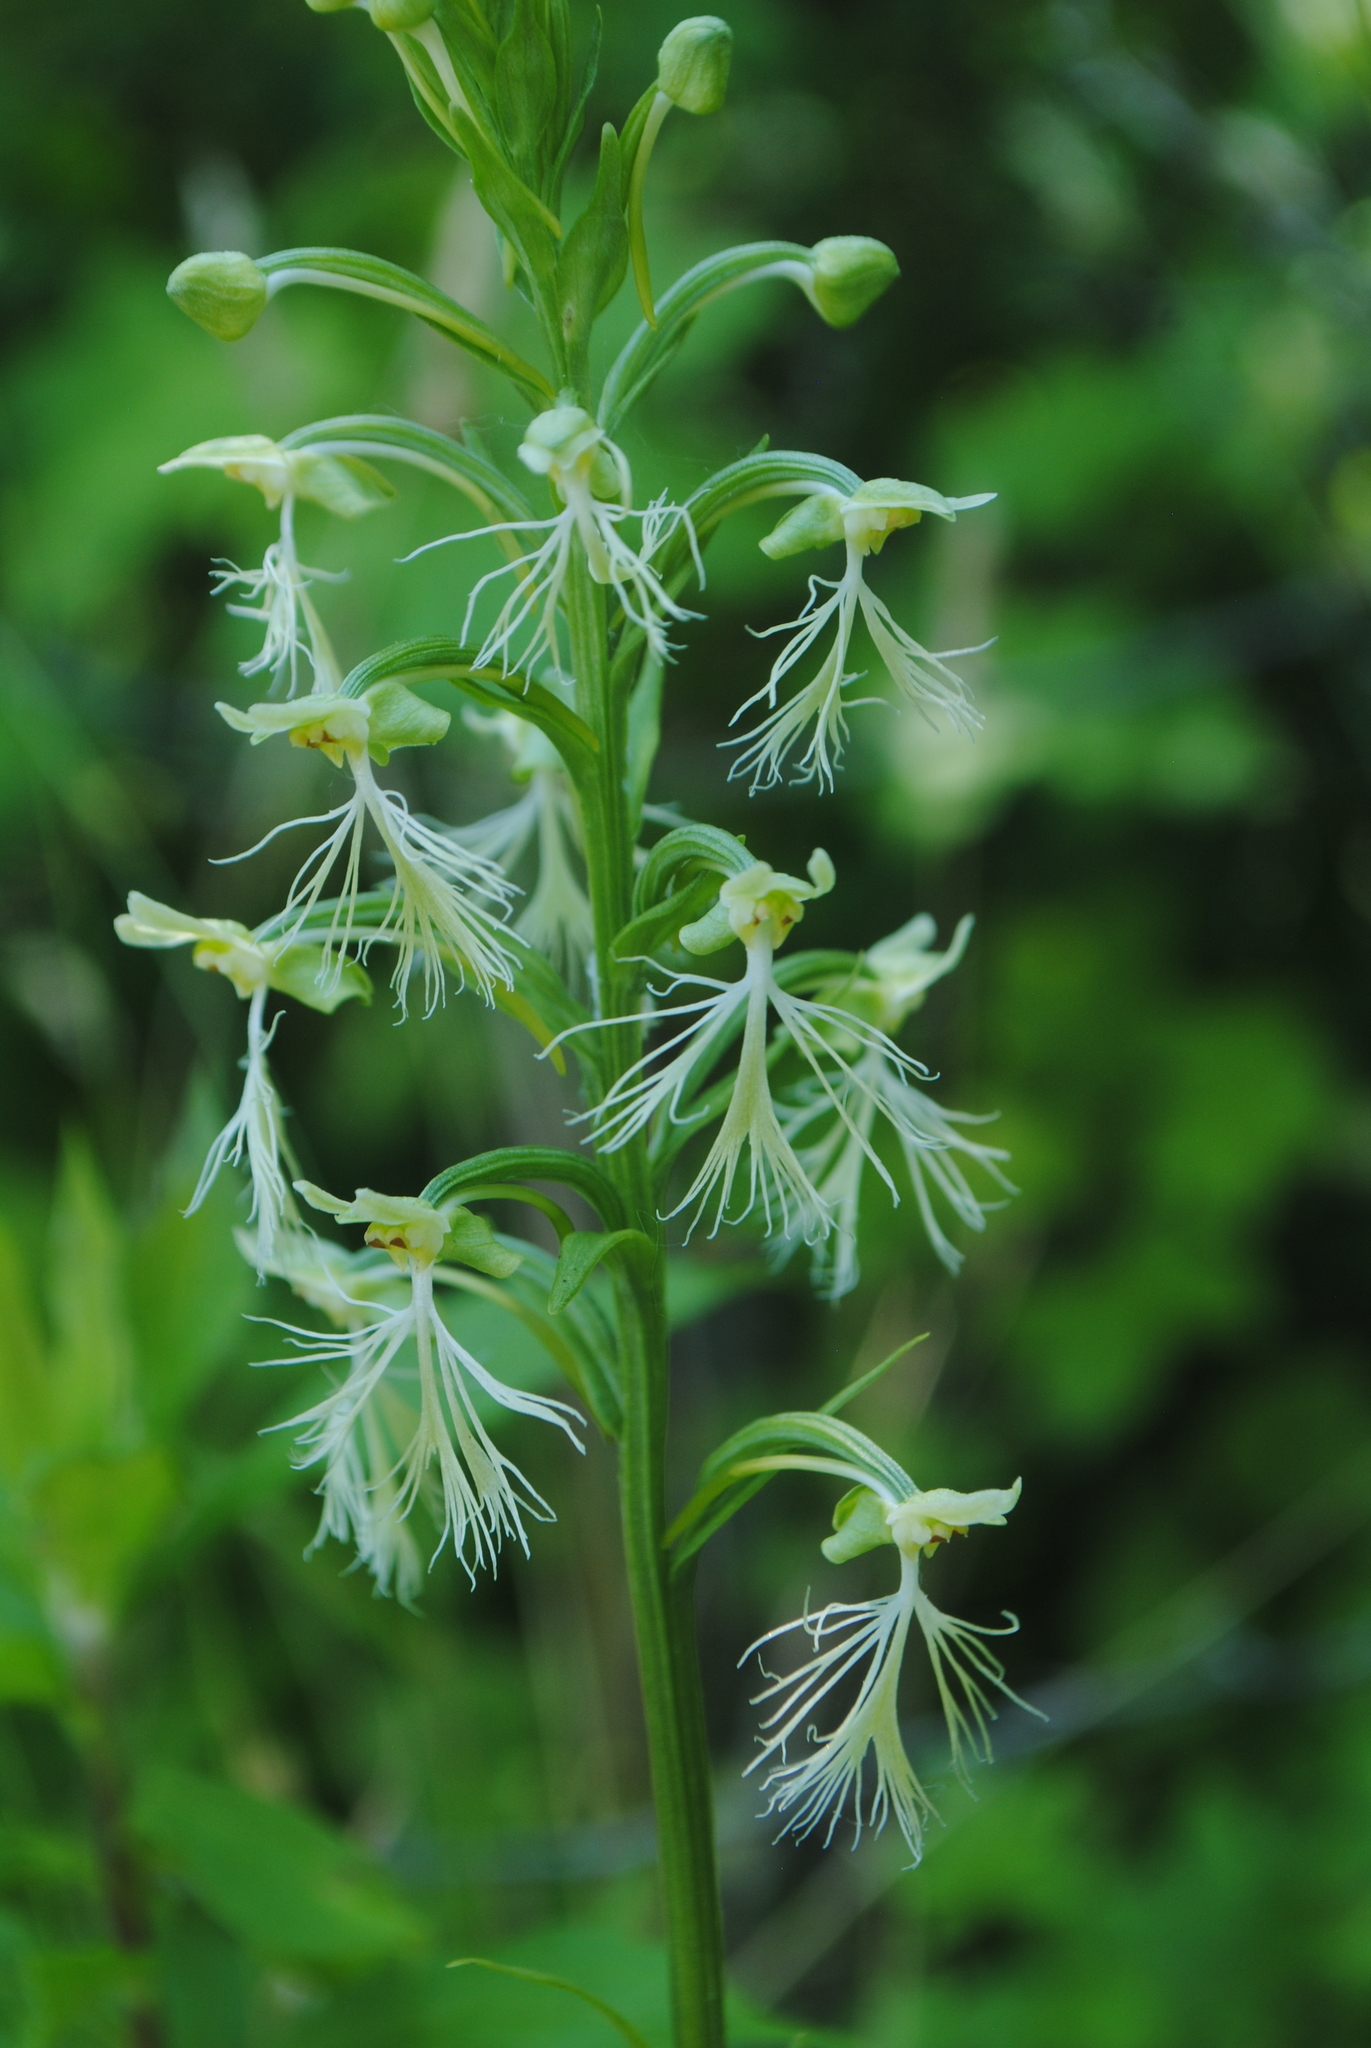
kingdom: Plantae
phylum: Tracheophyta
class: Liliopsida
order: Asparagales
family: Orchidaceae
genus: Platanthera
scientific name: Platanthera lacera
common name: Green fringed orchid
